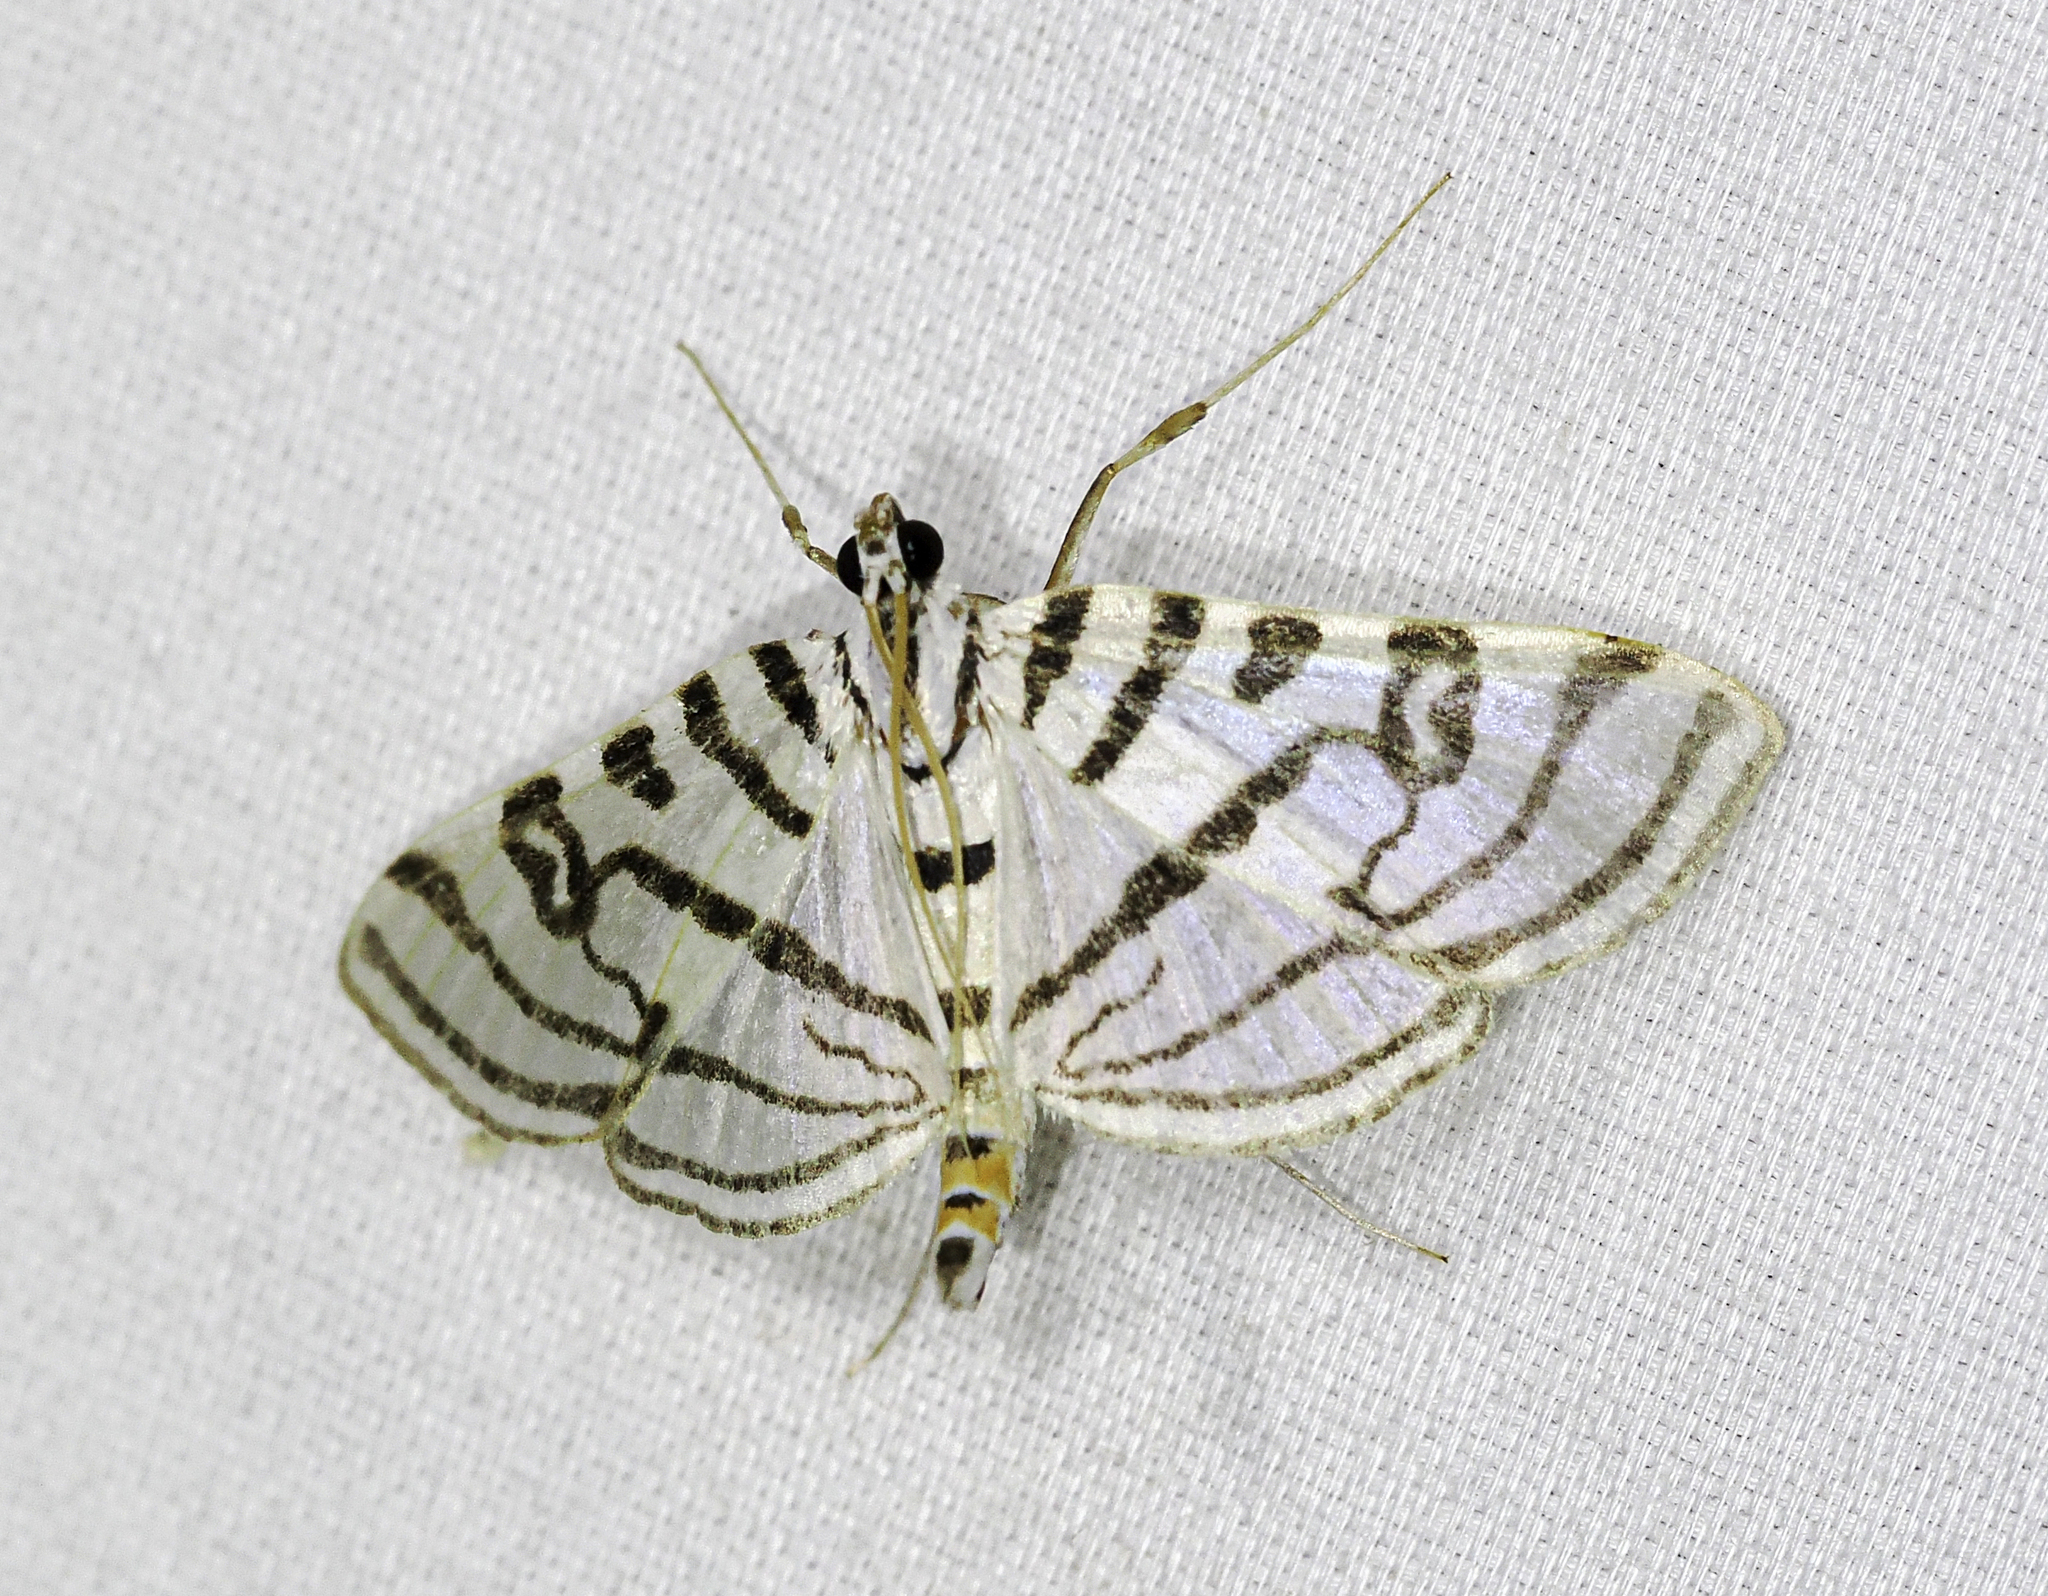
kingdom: Animalia
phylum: Arthropoda
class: Insecta
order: Lepidoptera
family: Crambidae
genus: Conchylodes
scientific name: Conchylodes ovulalis
